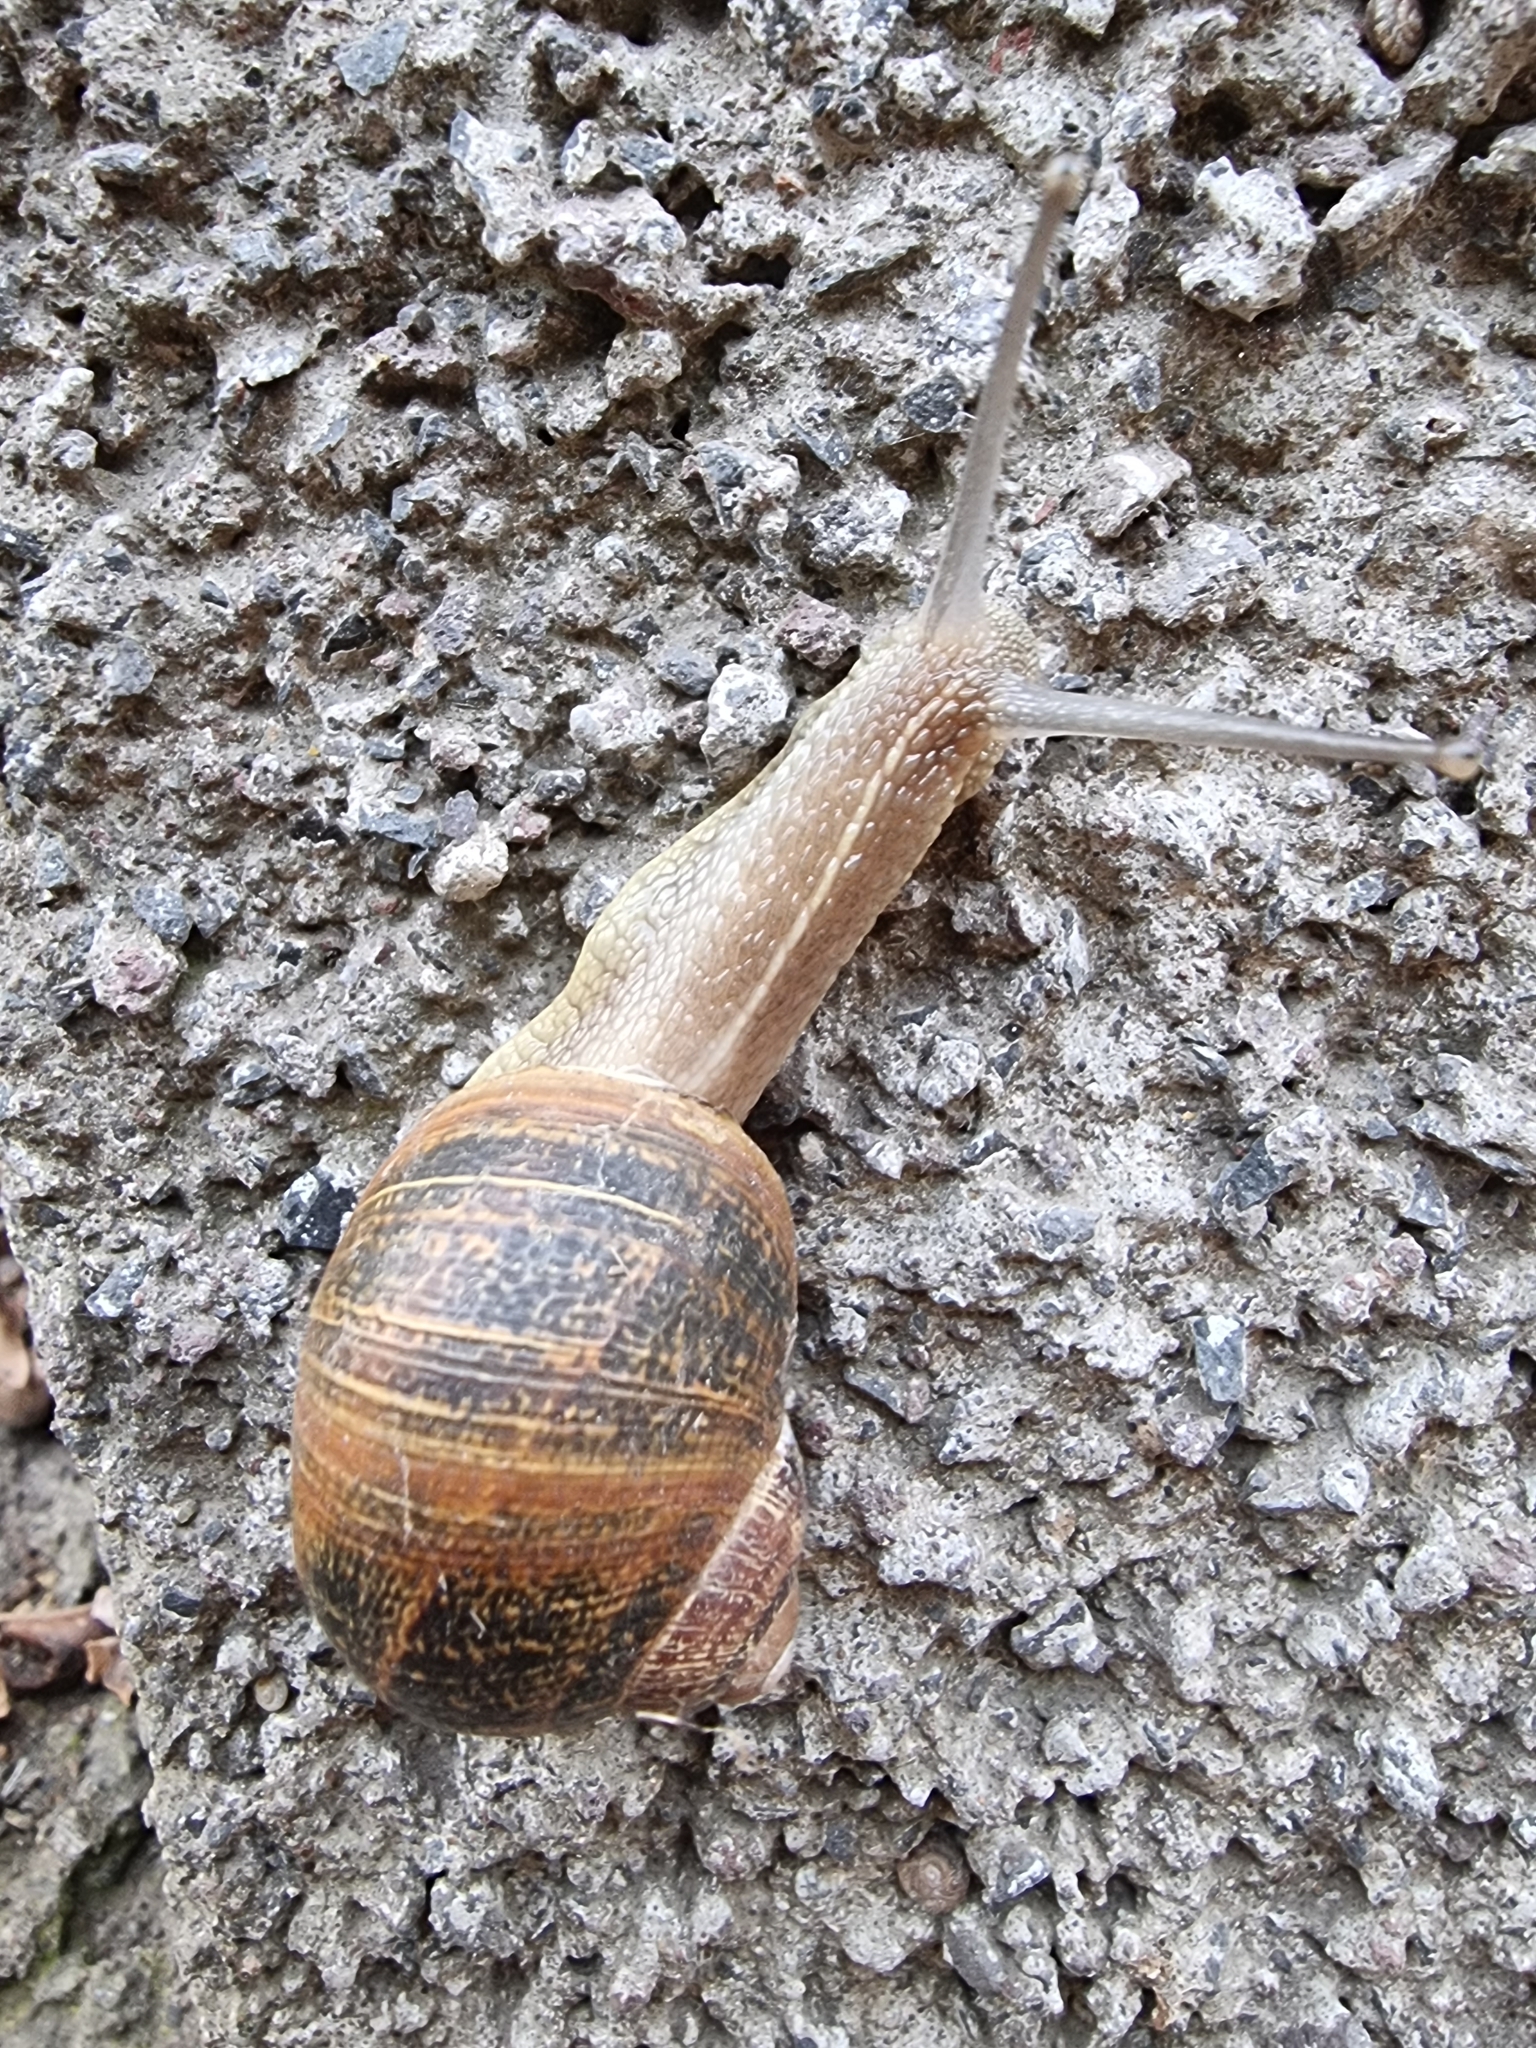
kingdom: Animalia
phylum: Mollusca
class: Gastropoda
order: Stylommatophora
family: Helicidae
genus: Cornu
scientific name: Cornu aspersum
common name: Brown garden snail
